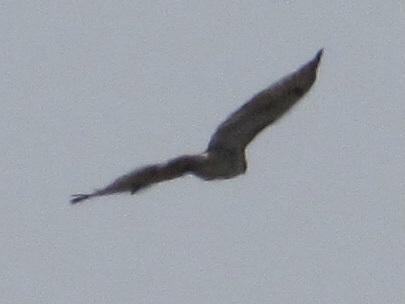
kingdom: Animalia
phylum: Chordata
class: Aves
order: Accipitriformes
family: Accipitridae
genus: Buteo
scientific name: Buteo jamaicensis
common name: Red-tailed hawk
